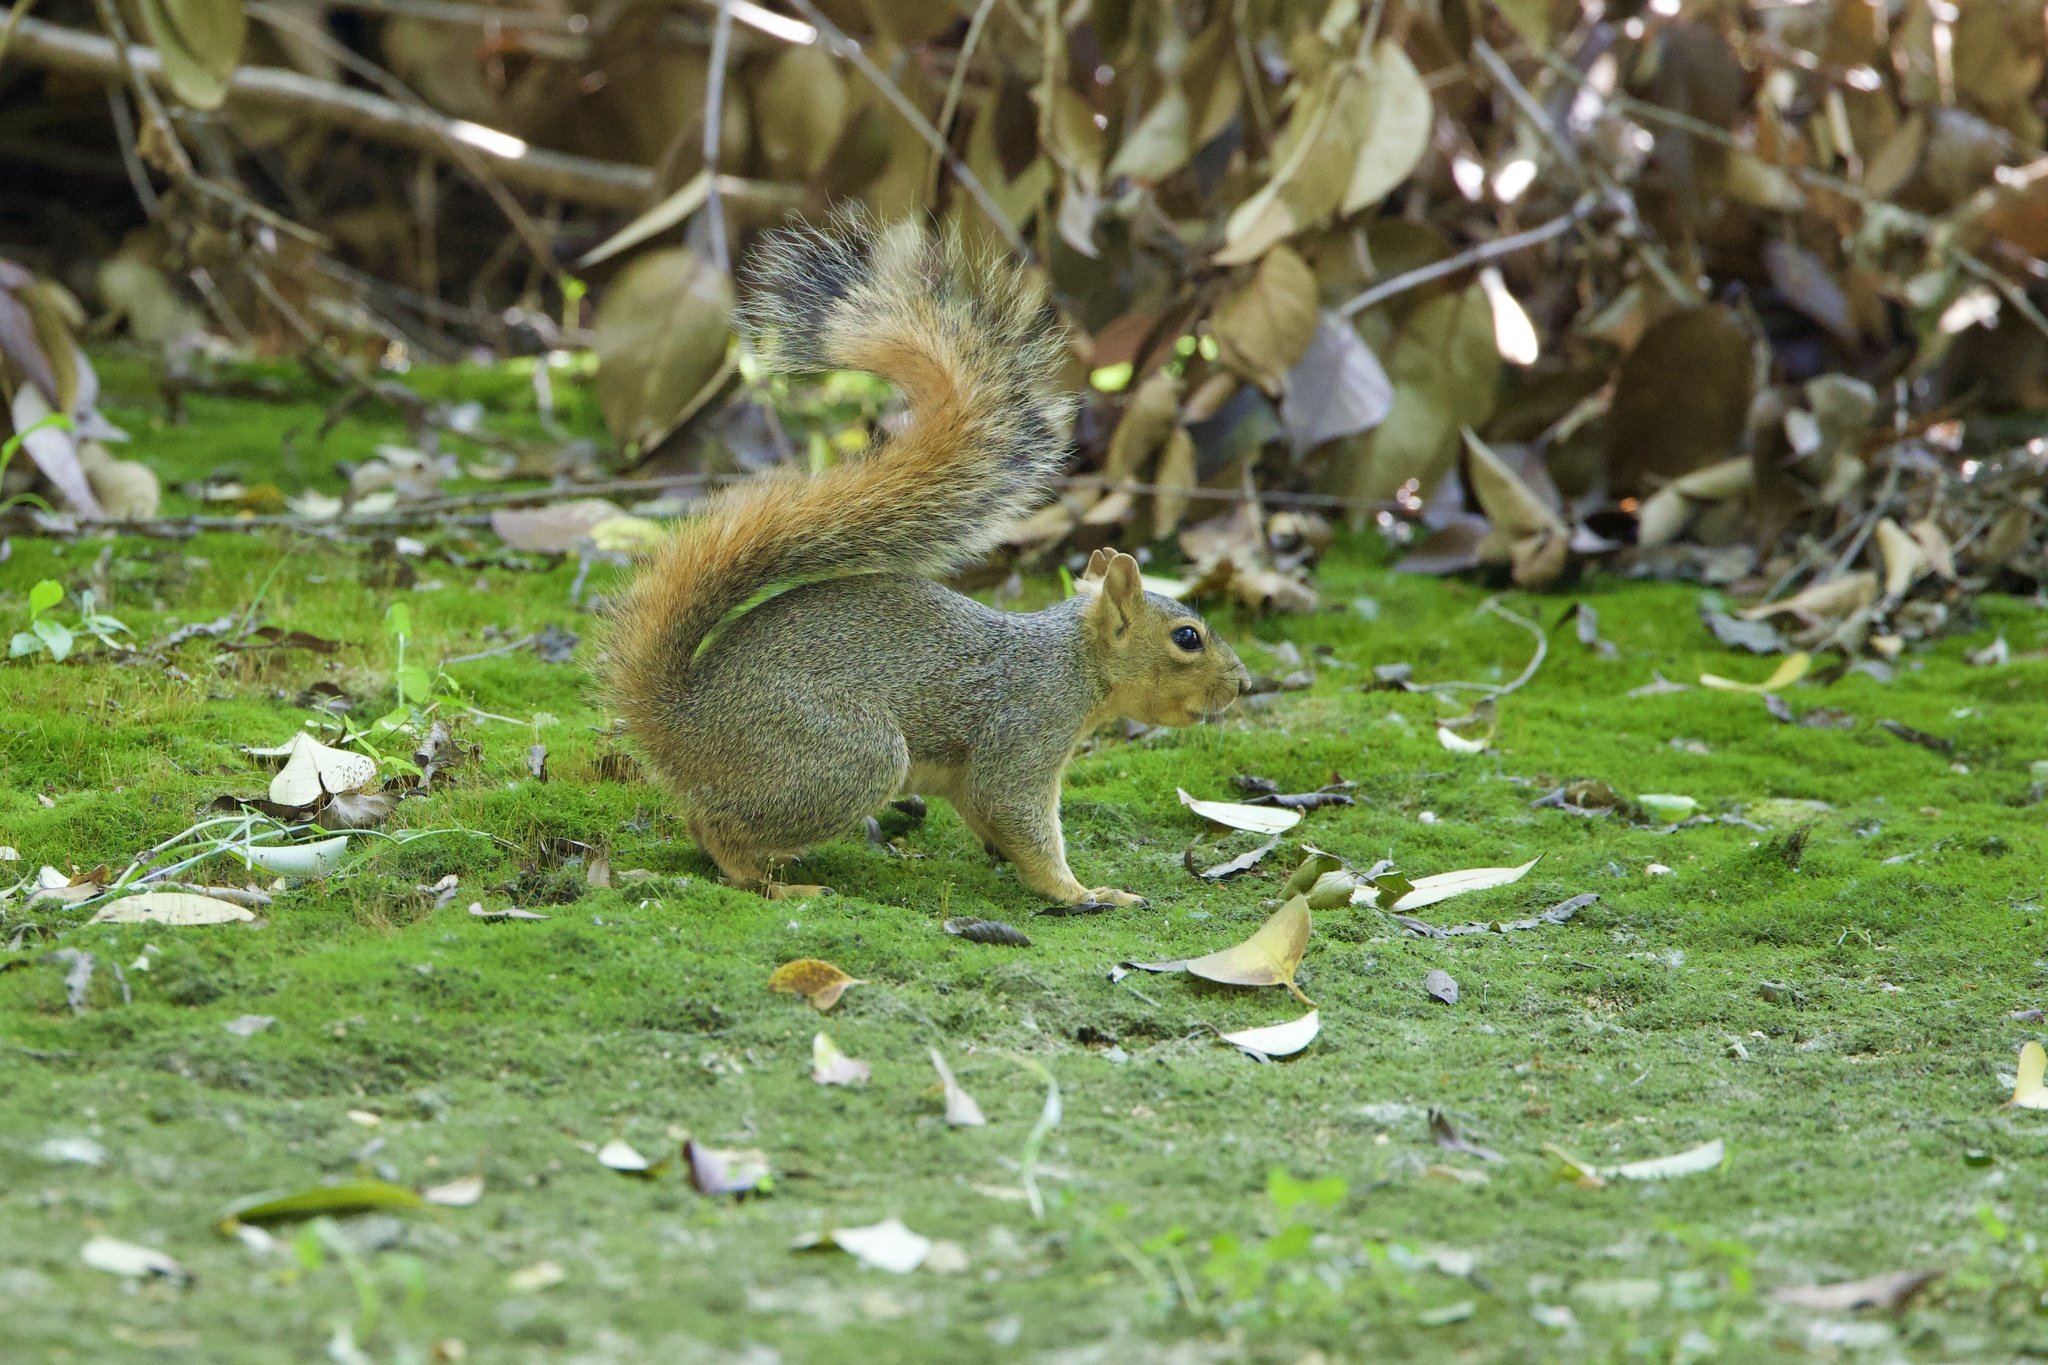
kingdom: Animalia
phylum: Chordata
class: Mammalia
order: Rodentia
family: Sciuridae
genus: Sciurus
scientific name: Sciurus niger
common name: Fox squirrel
